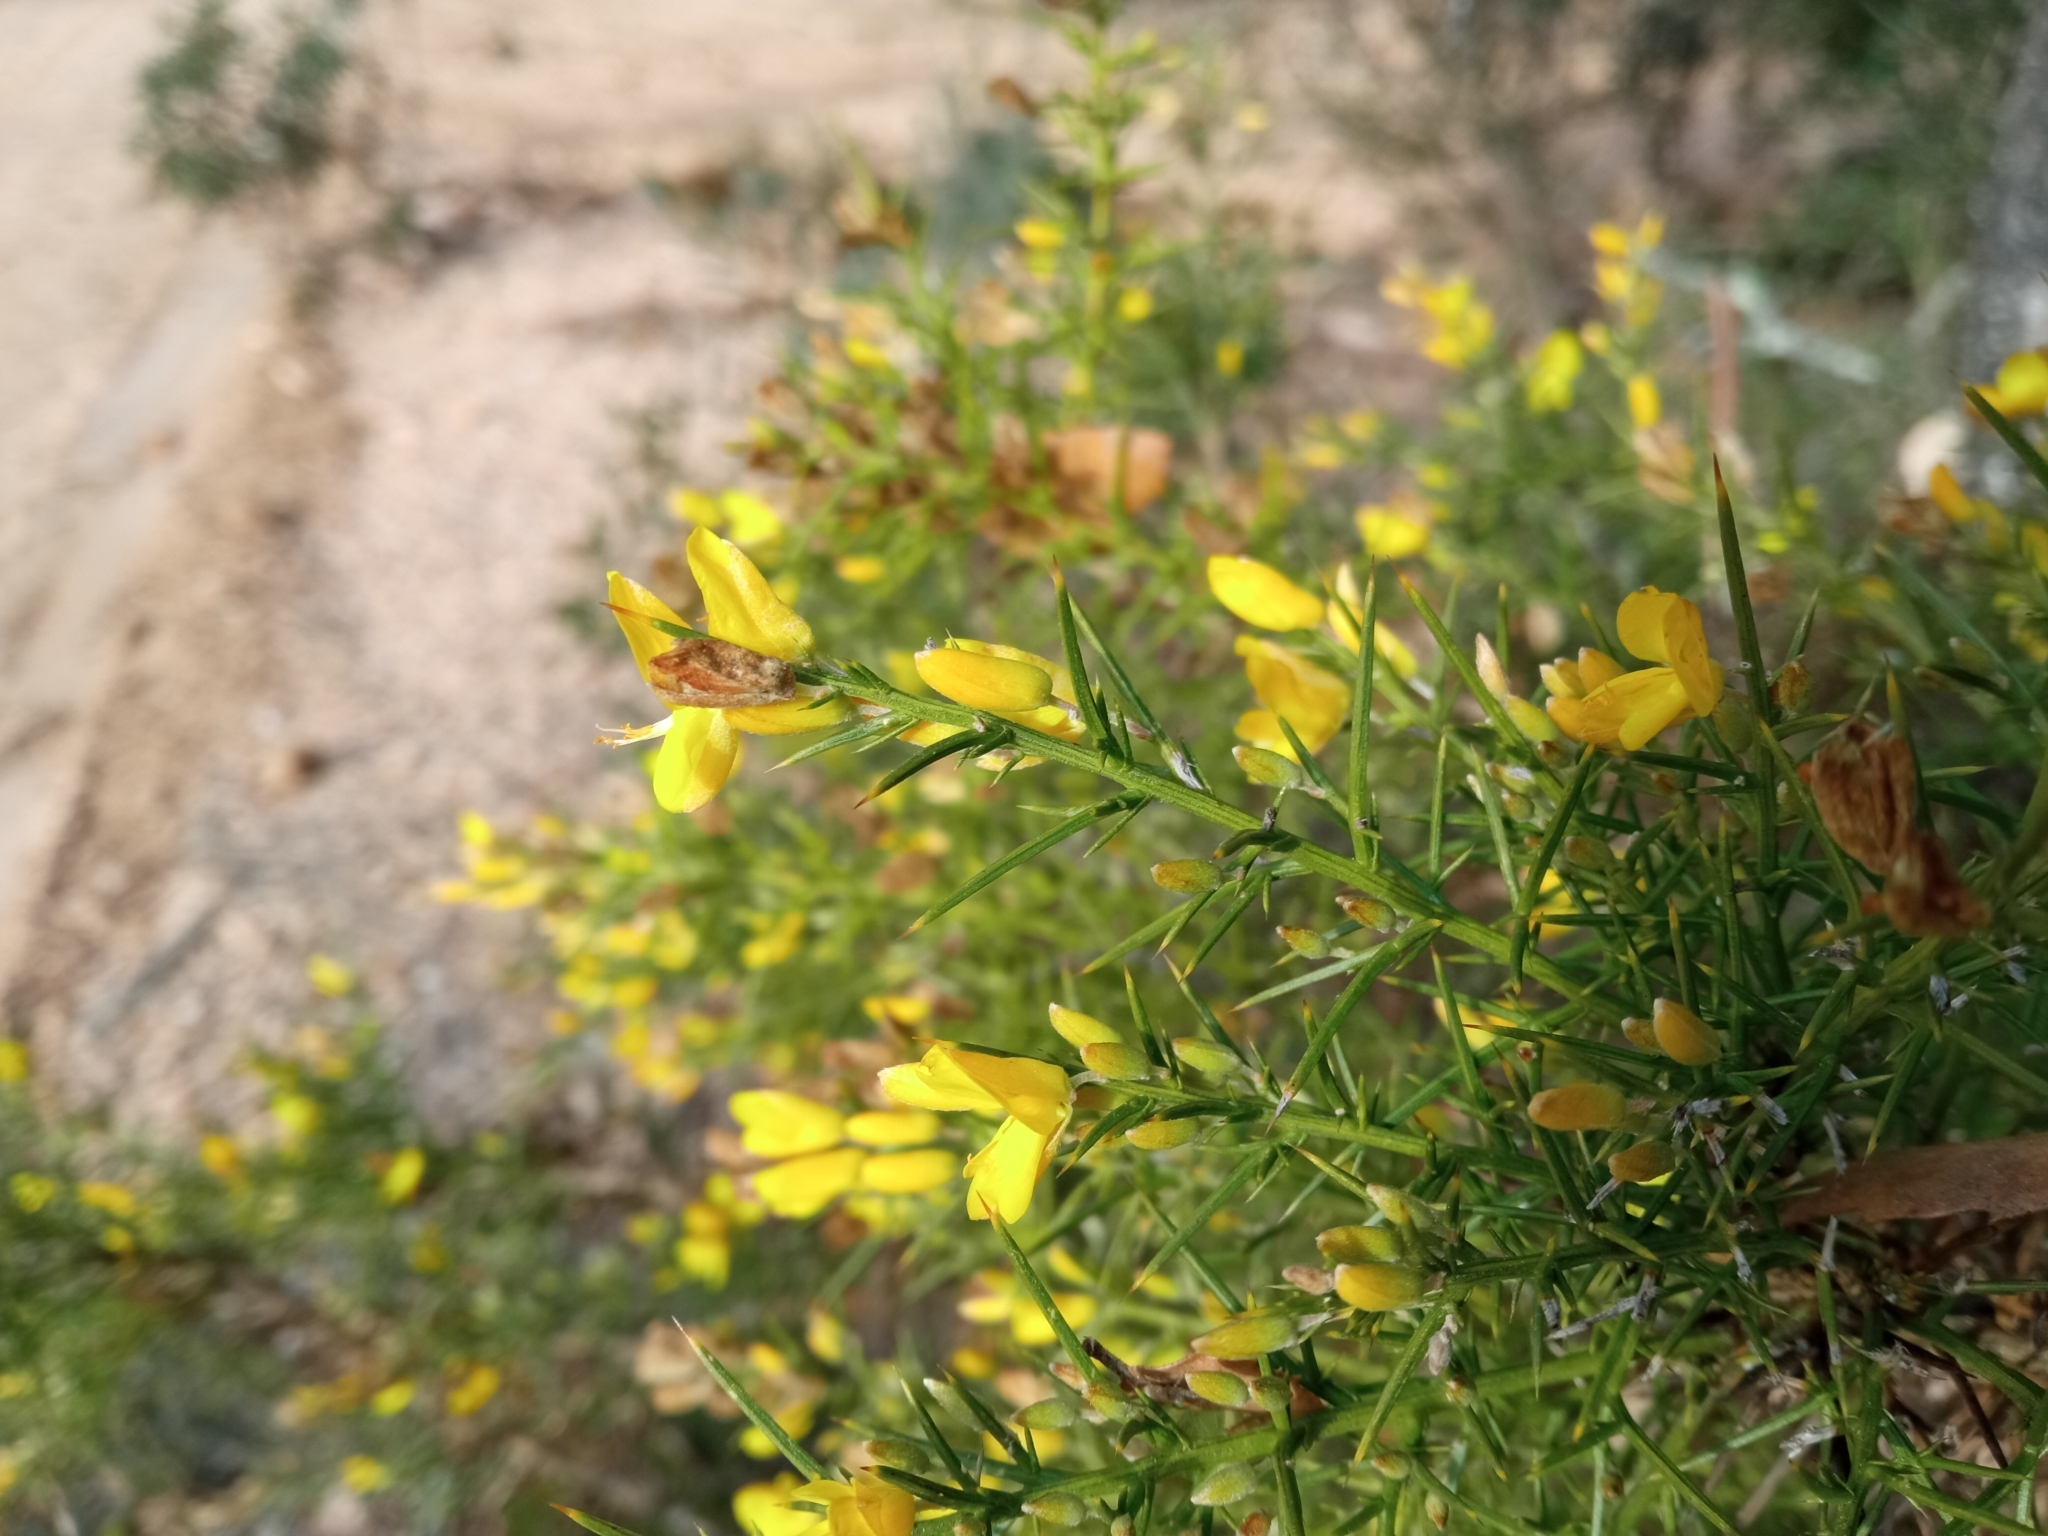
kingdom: Plantae
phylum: Tracheophyta
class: Magnoliopsida
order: Fabales
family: Fabaceae
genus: Ulex
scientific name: Ulex parviflorus
